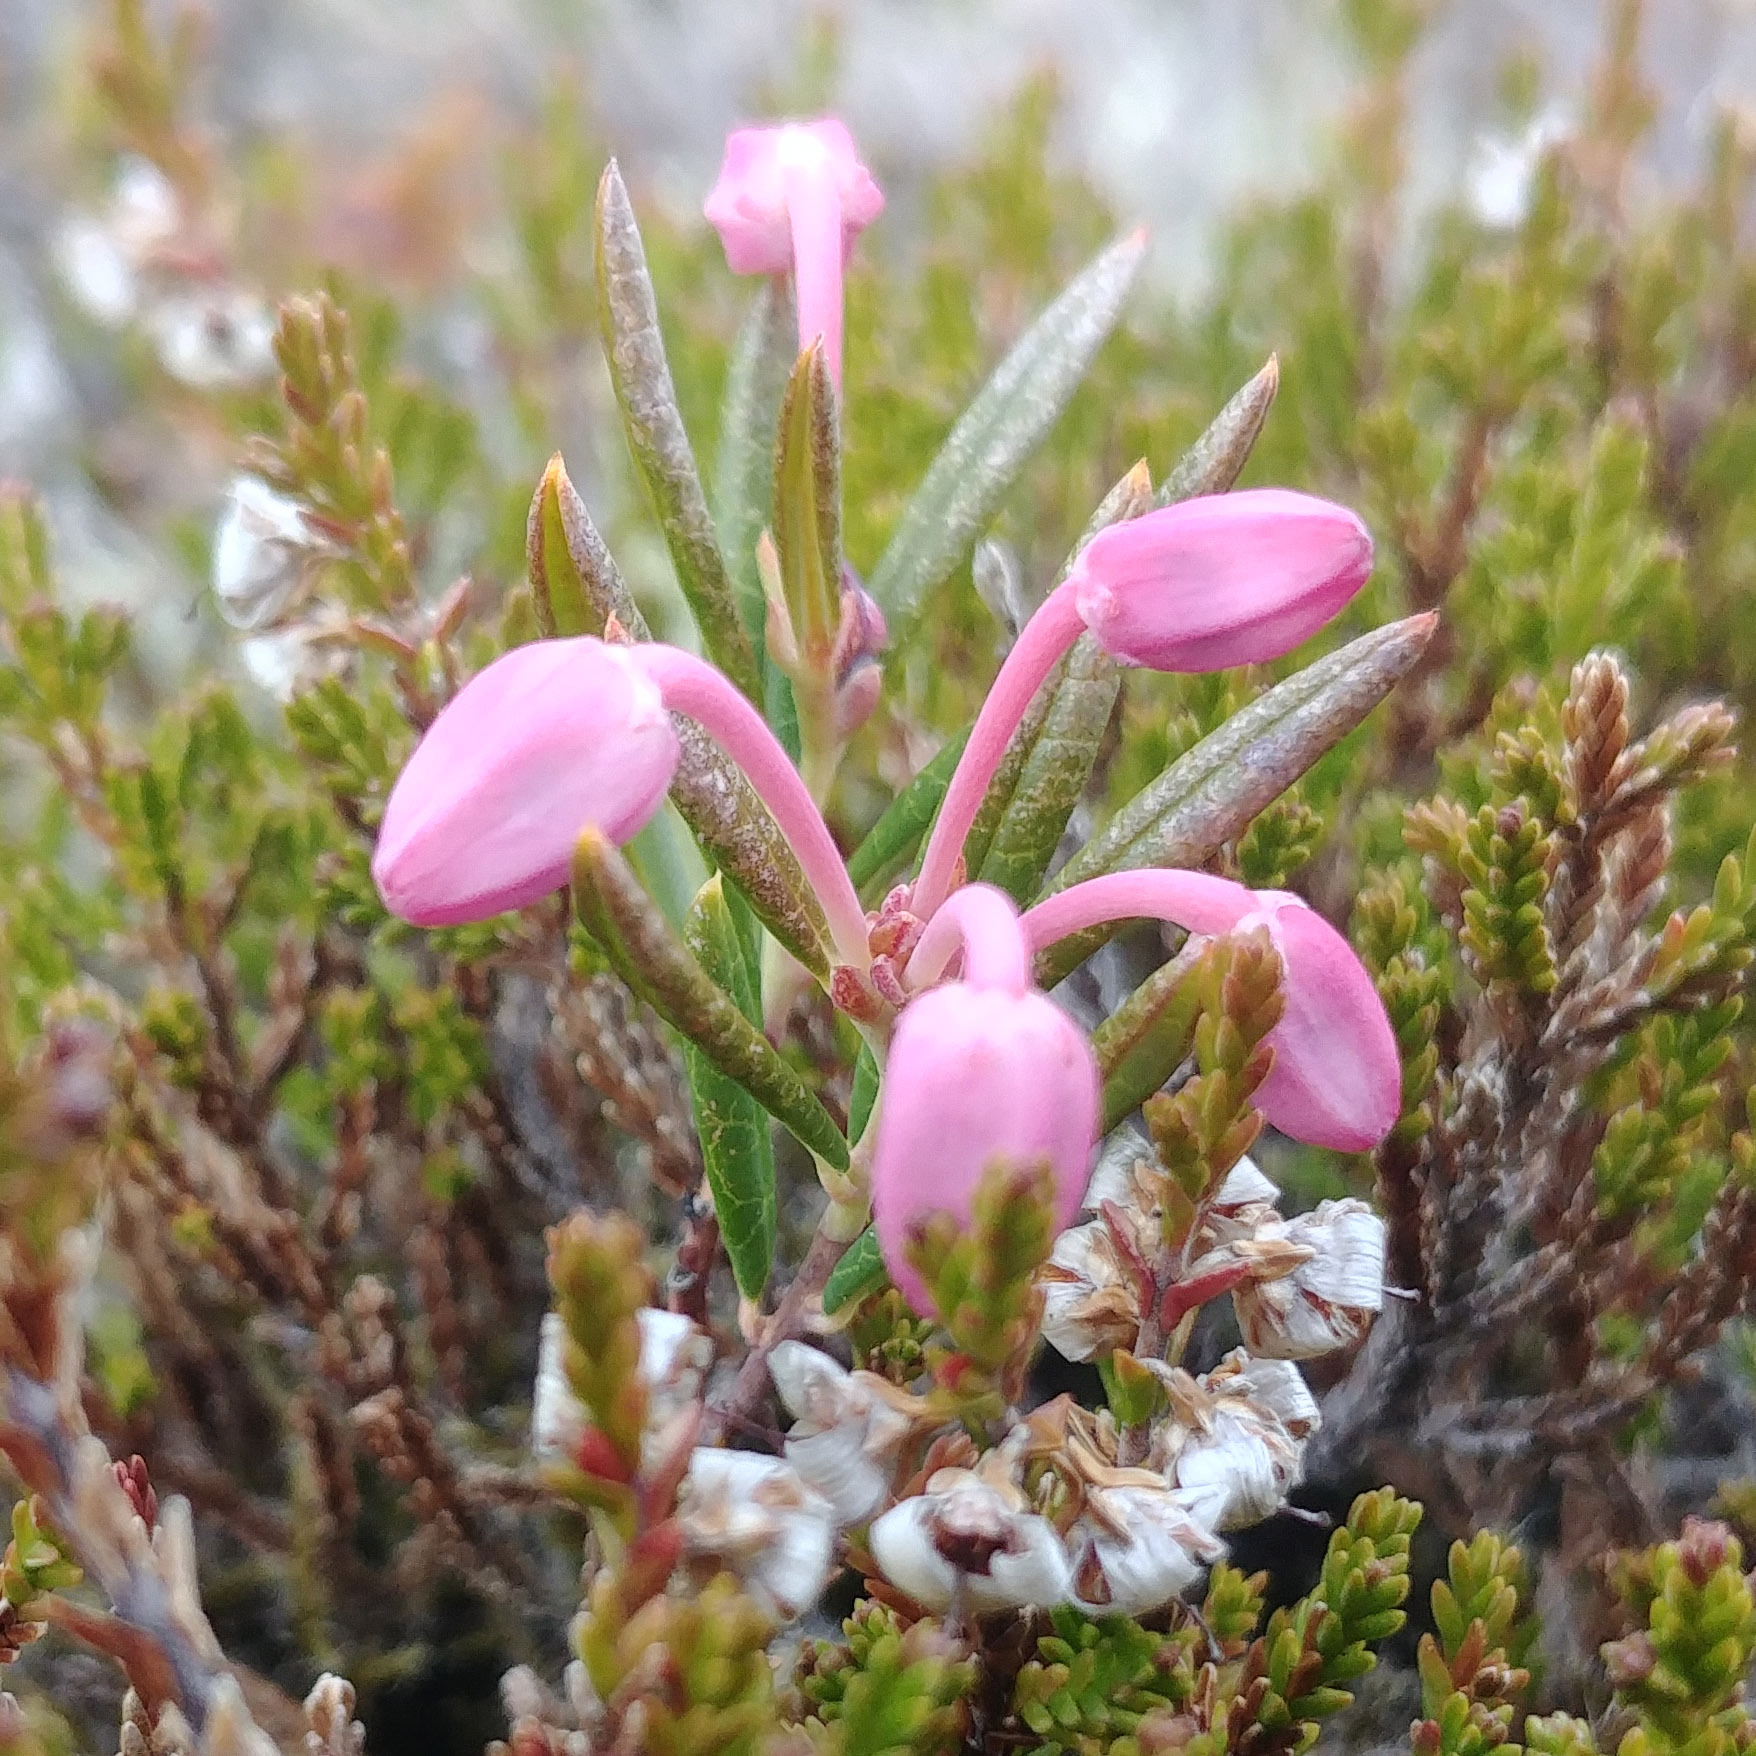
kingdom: Plantae
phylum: Tracheophyta
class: Magnoliopsida
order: Ericales
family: Ericaceae
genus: Andromeda
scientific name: Andromeda polifolia
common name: Bog-rosemary
